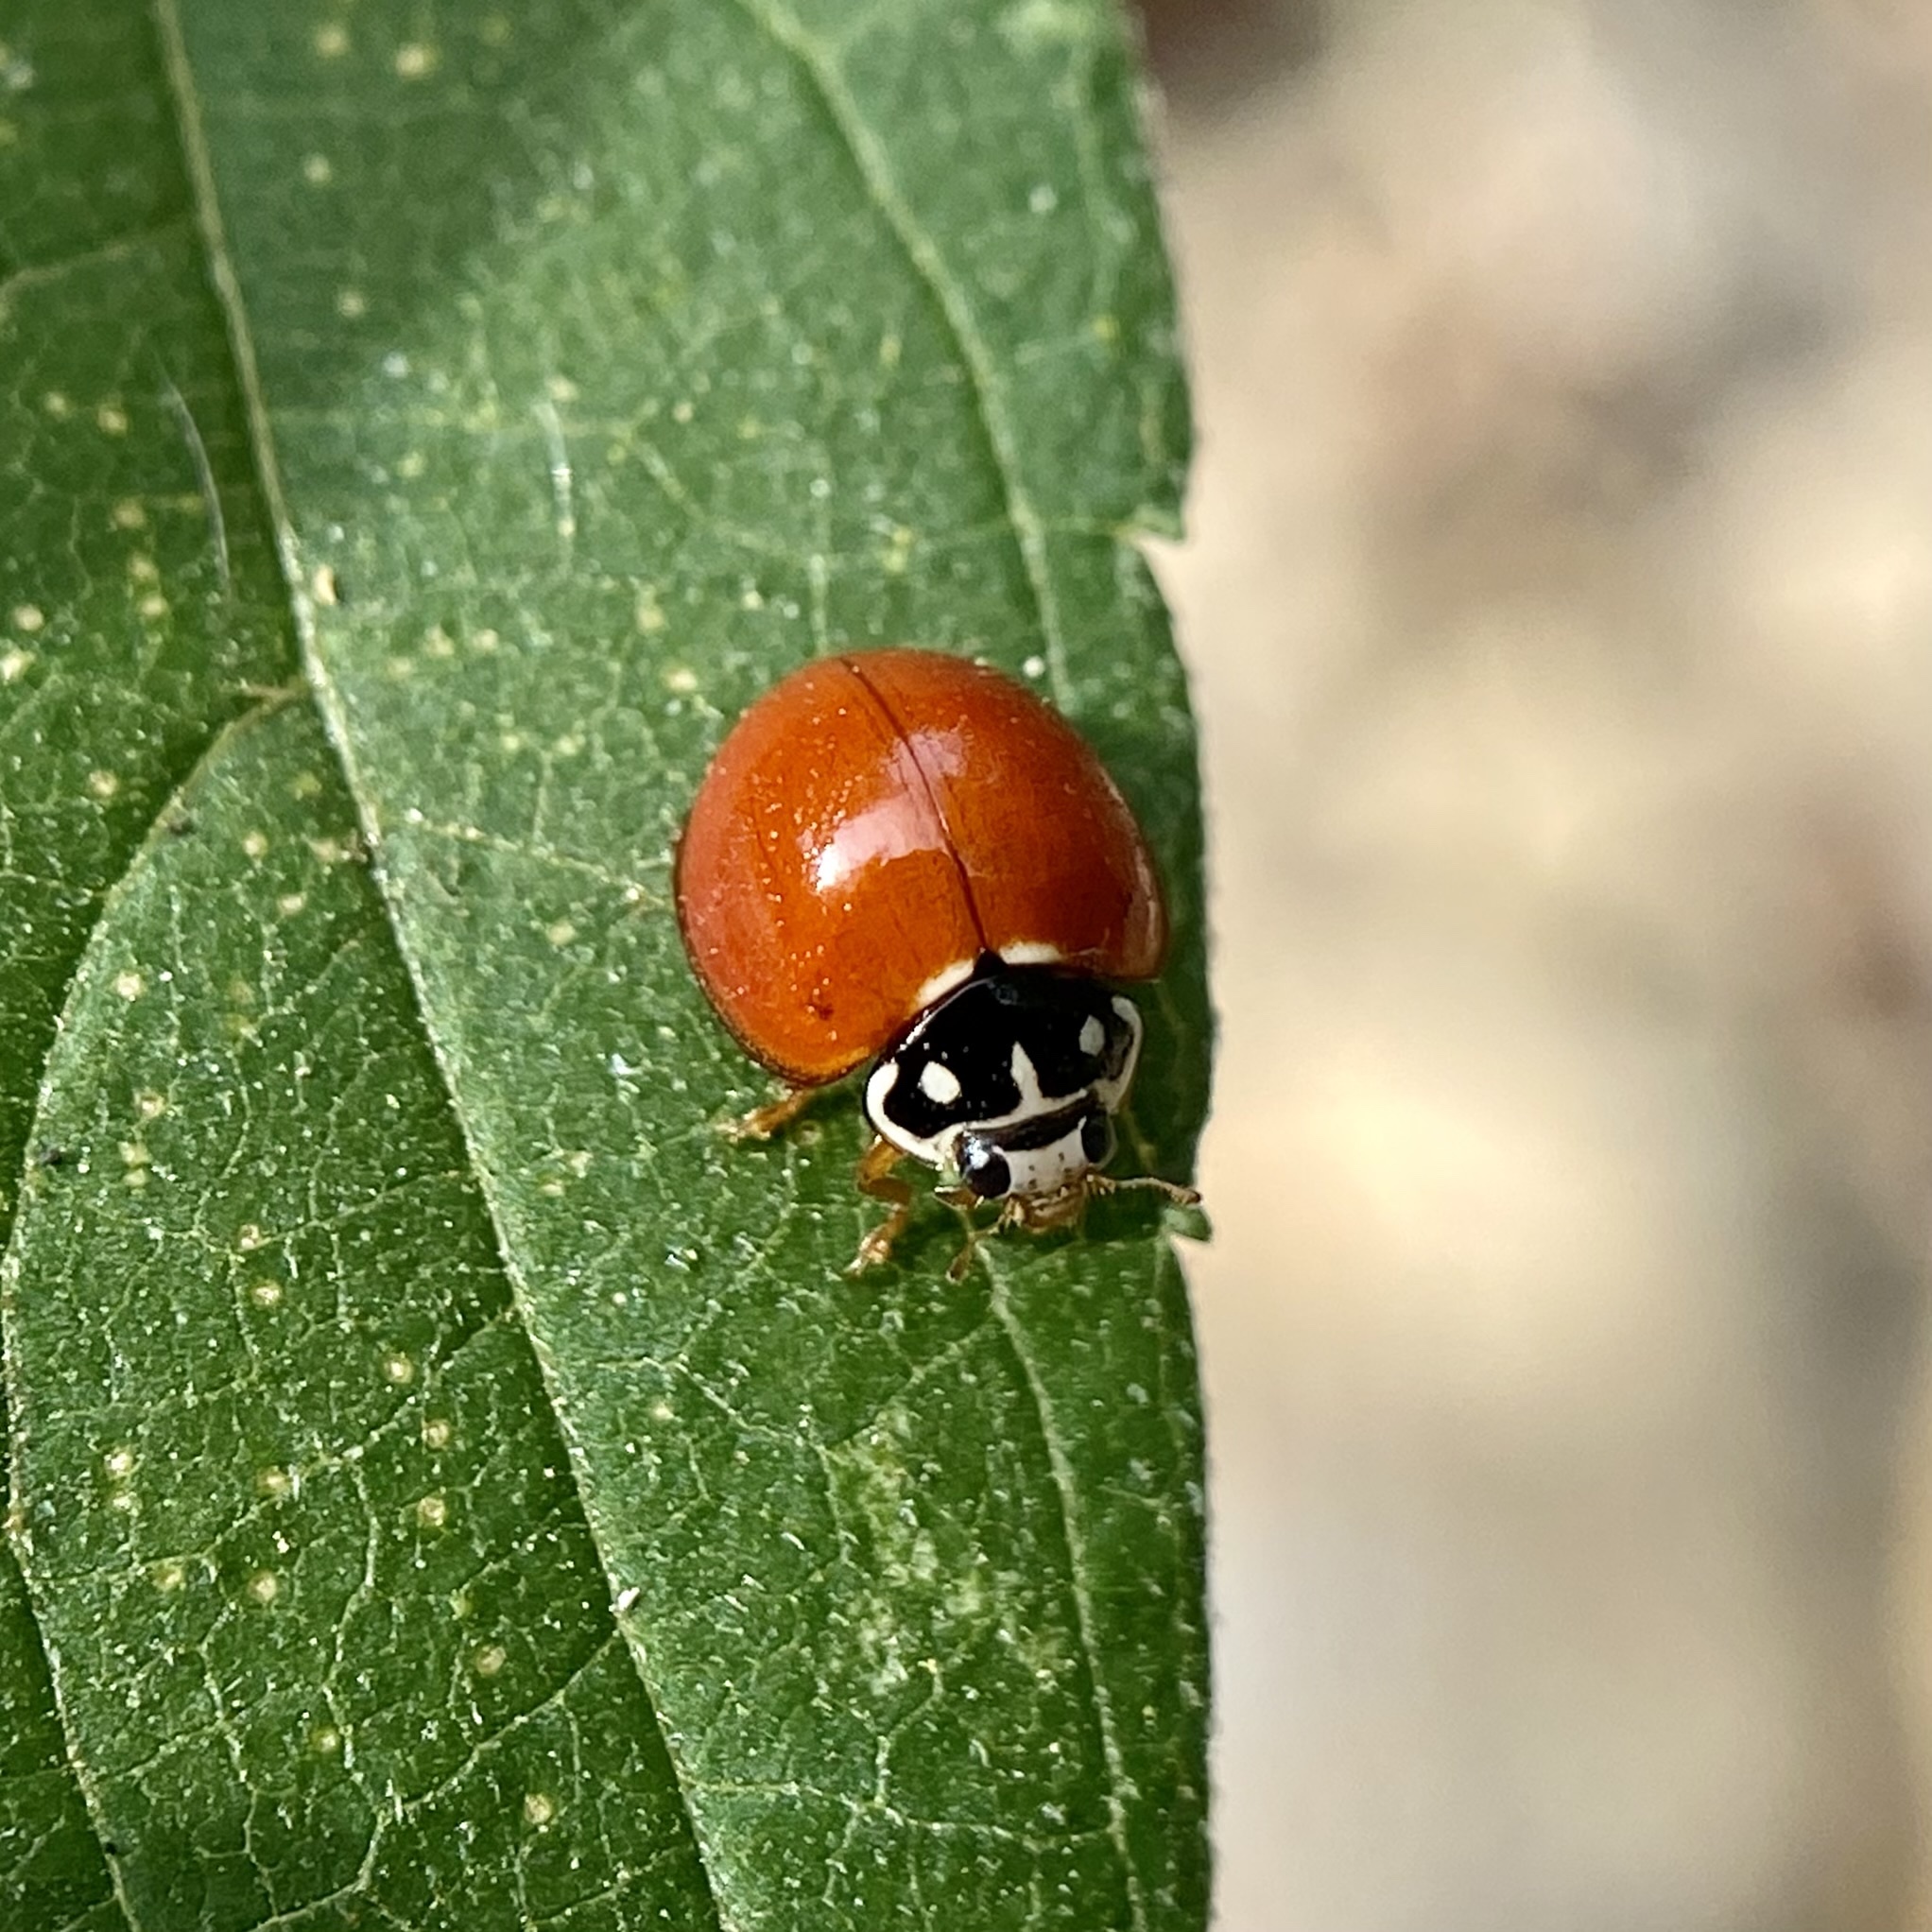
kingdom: Animalia
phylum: Arthropoda
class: Insecta
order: Coleoptera
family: Coccinellidae
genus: Cycloneda
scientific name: Cycloneda sanguinea
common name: Ladybird beetle
